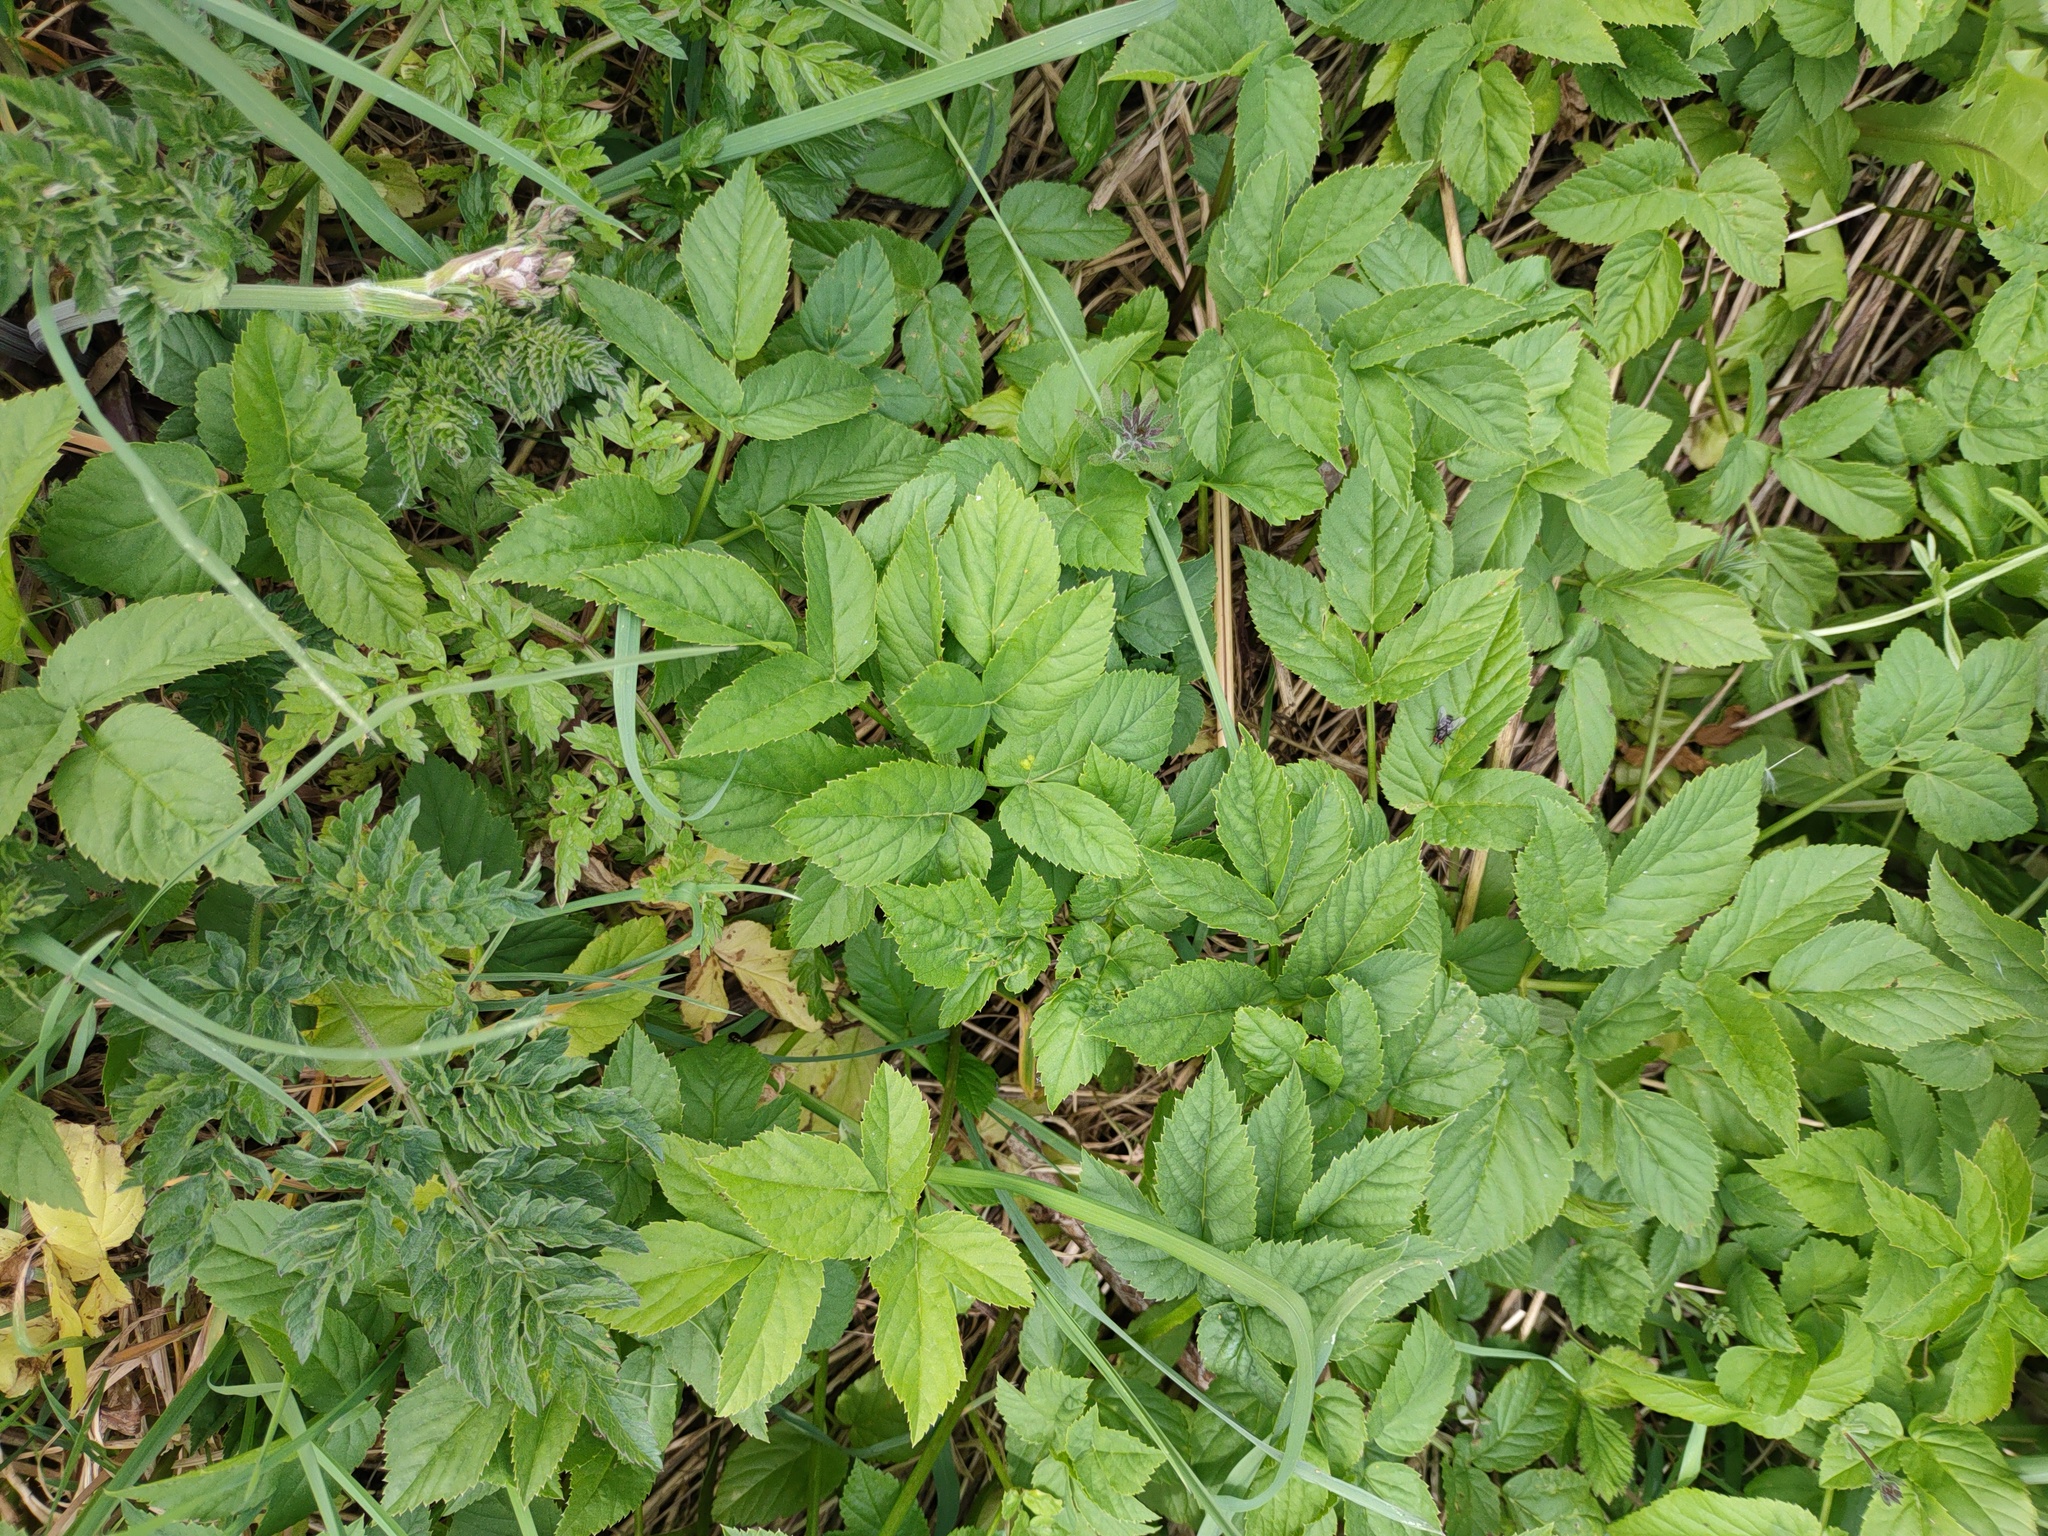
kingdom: Plantae
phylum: Tracheophyta
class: Magnoliopsida
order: Apiales
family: Apiaceae
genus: Aegopodium
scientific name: Aegopodium podagraria
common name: Ground-elder
